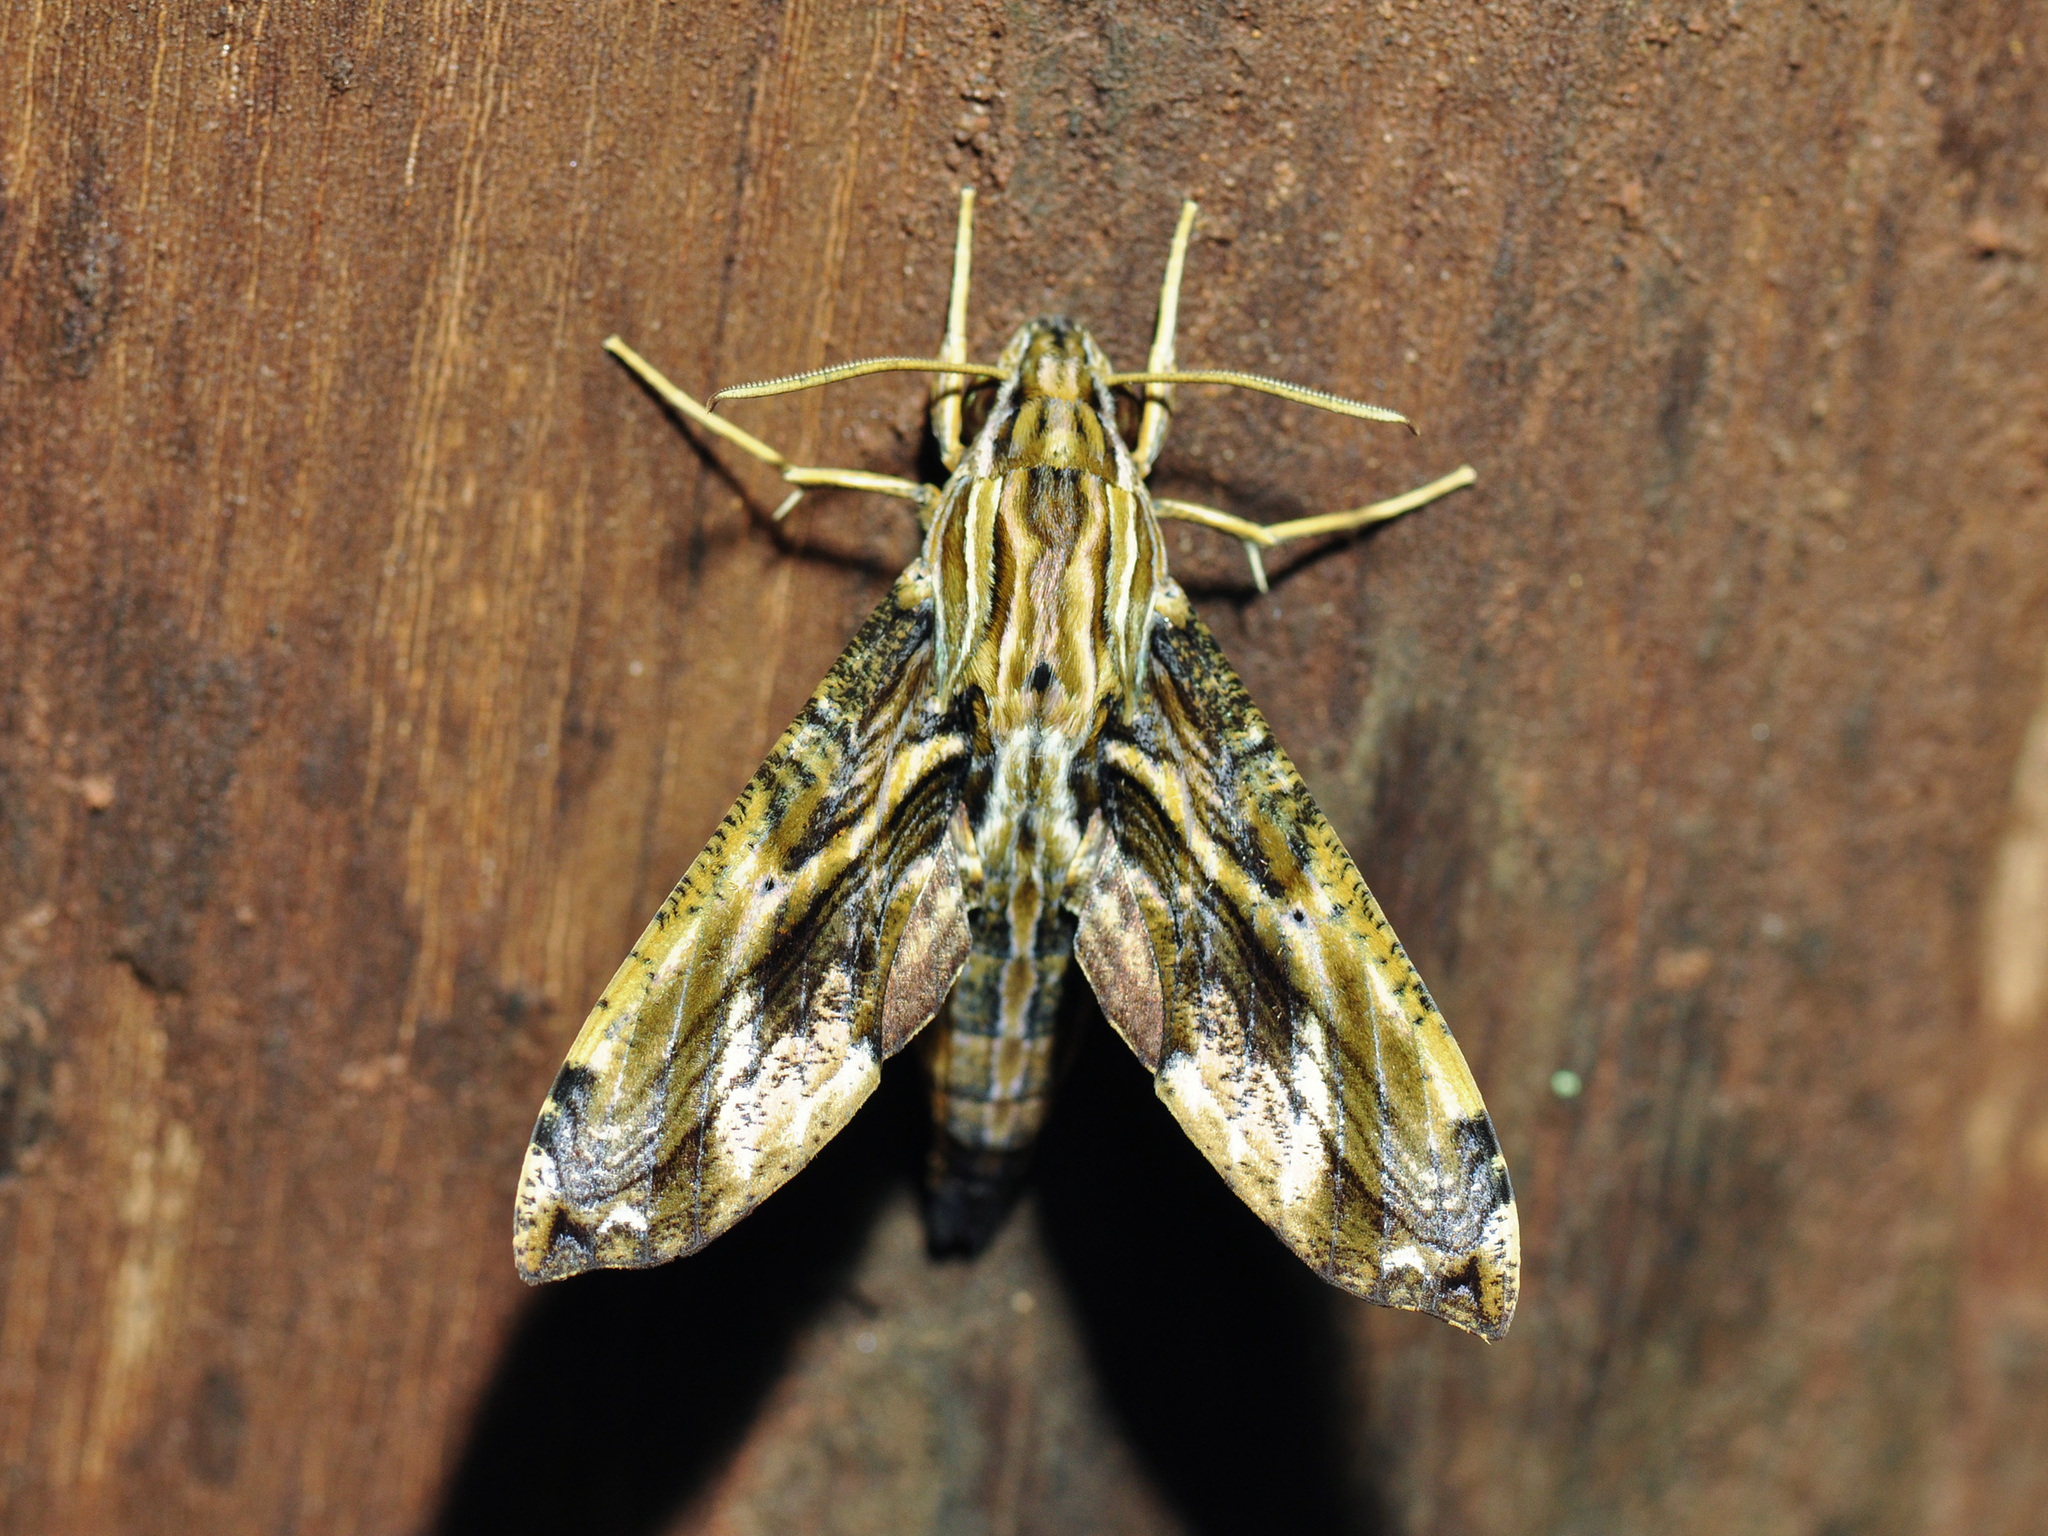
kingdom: Animalia
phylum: Arthropoda
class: Insecta
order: Lepidoptera
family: Sphingidae
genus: Eupanacra
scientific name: Eupanacra variolosa
